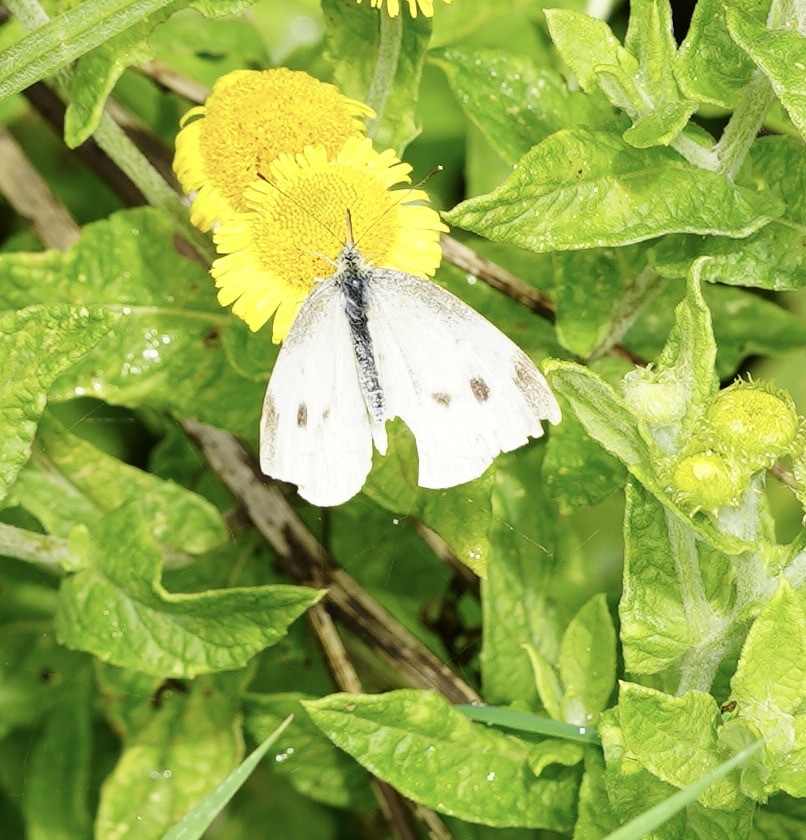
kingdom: Animalia
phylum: Arthropoda
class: Insecta
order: Lepidoptera
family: Pieridae
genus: Pieris
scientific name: Pieris rapae
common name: Small white
